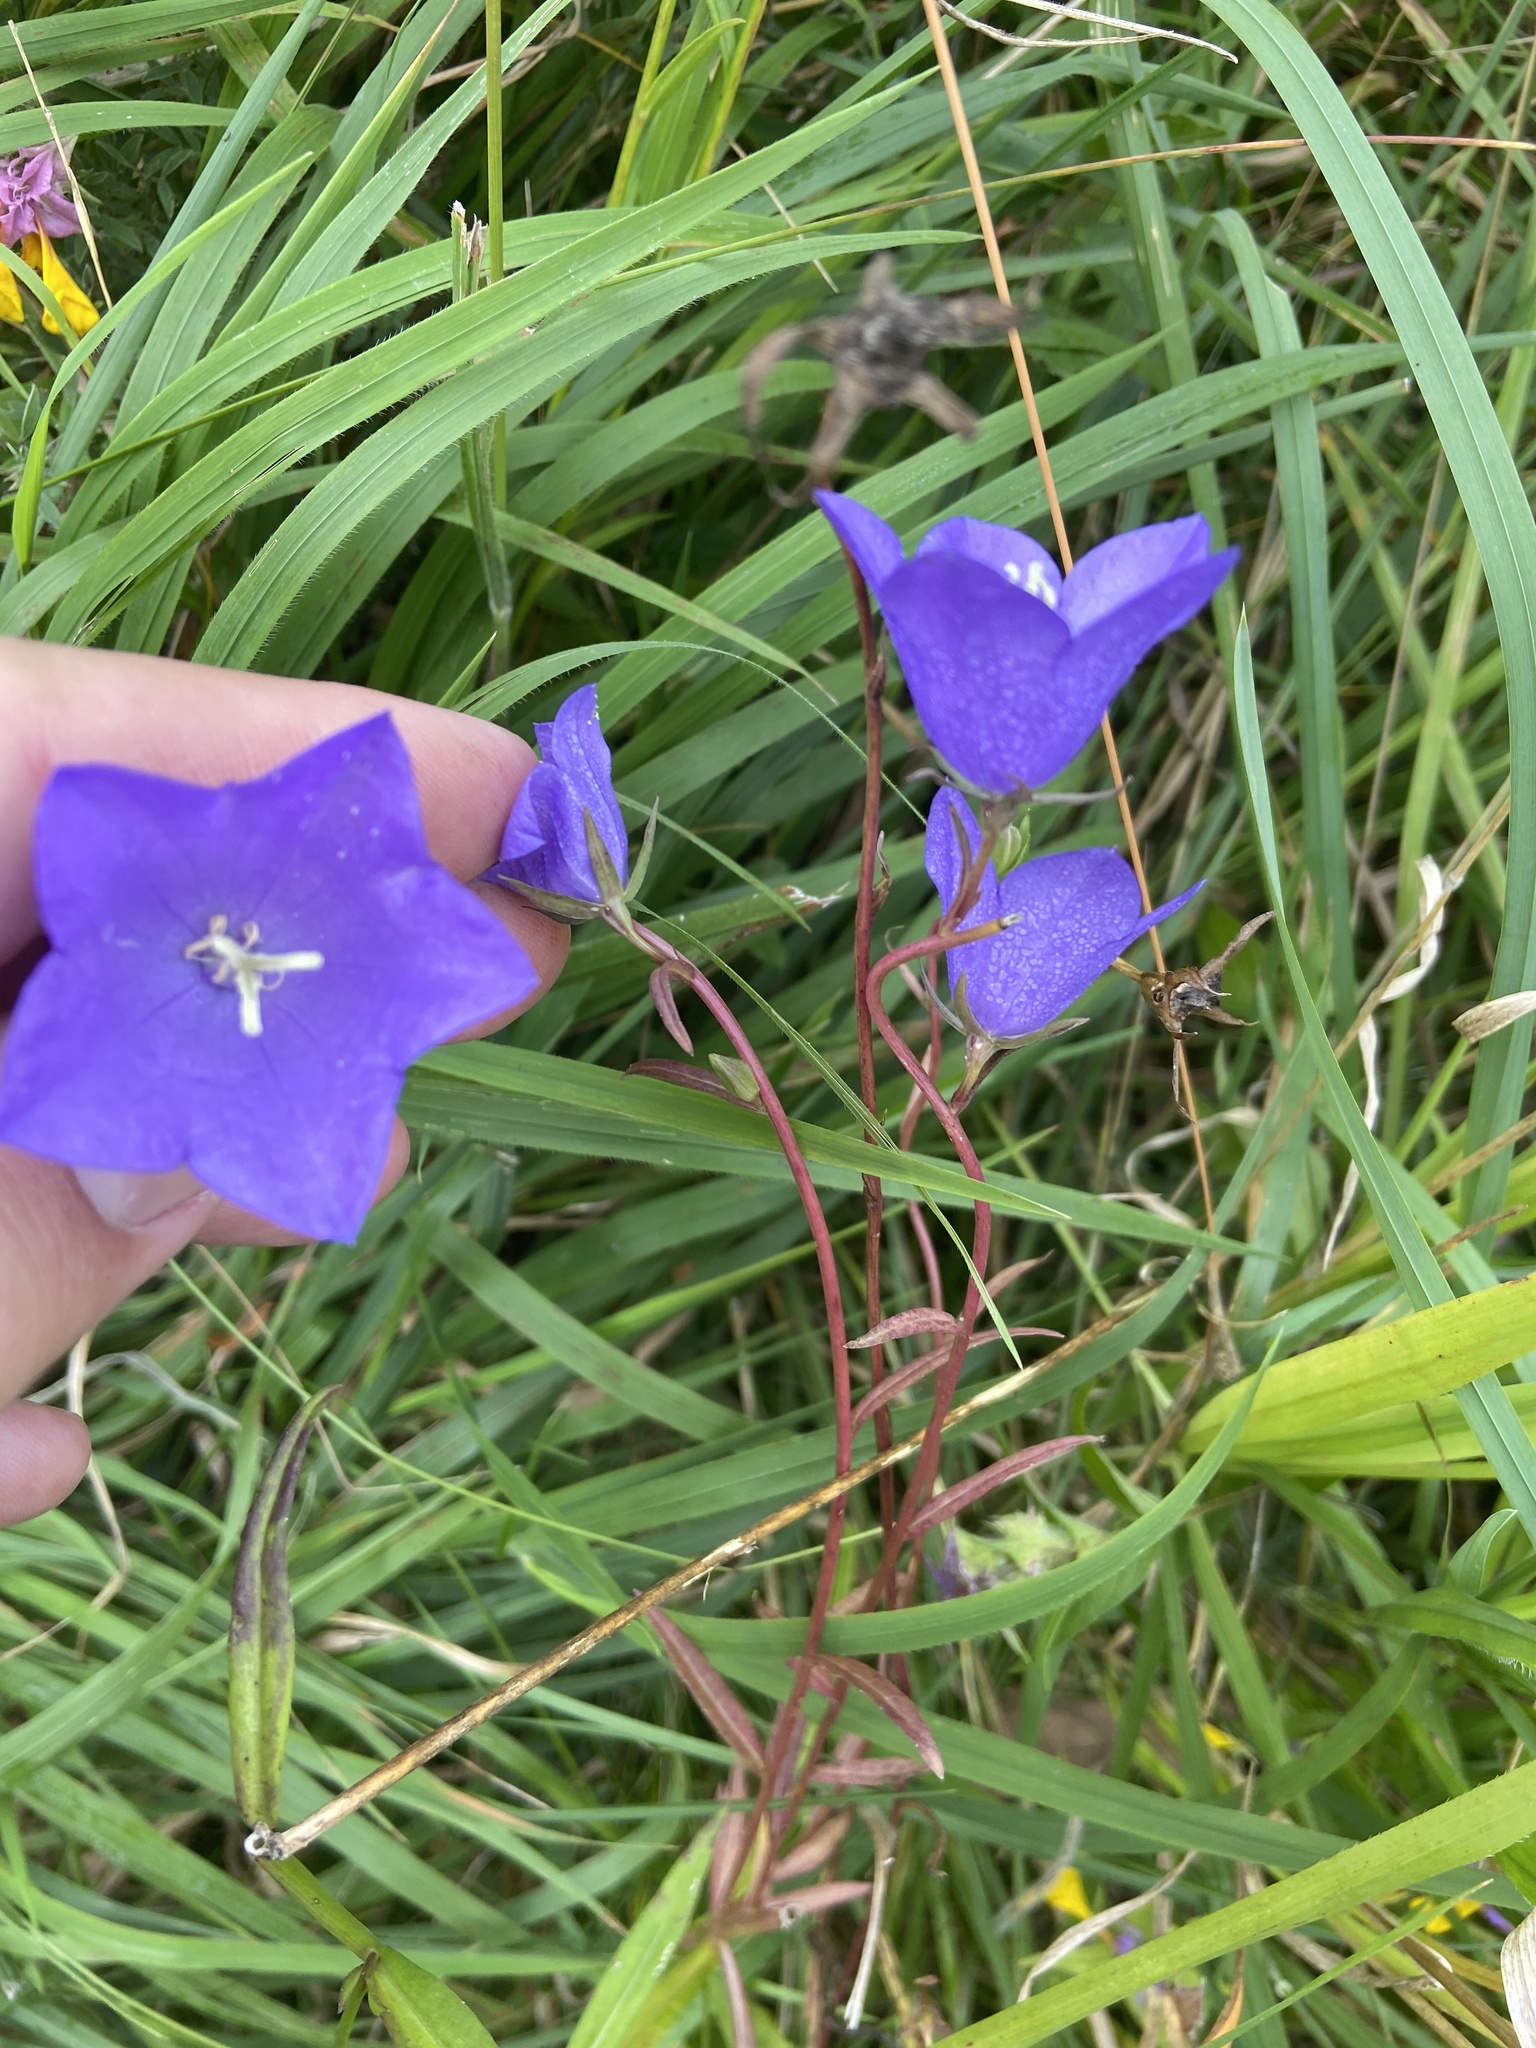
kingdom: Plantae
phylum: Tracheophyta
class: Magnoliopsida
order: Asterales
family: Campanulaceae
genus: Campanula
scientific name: Campanula persicifolia
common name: Peach-leaved bellflower
